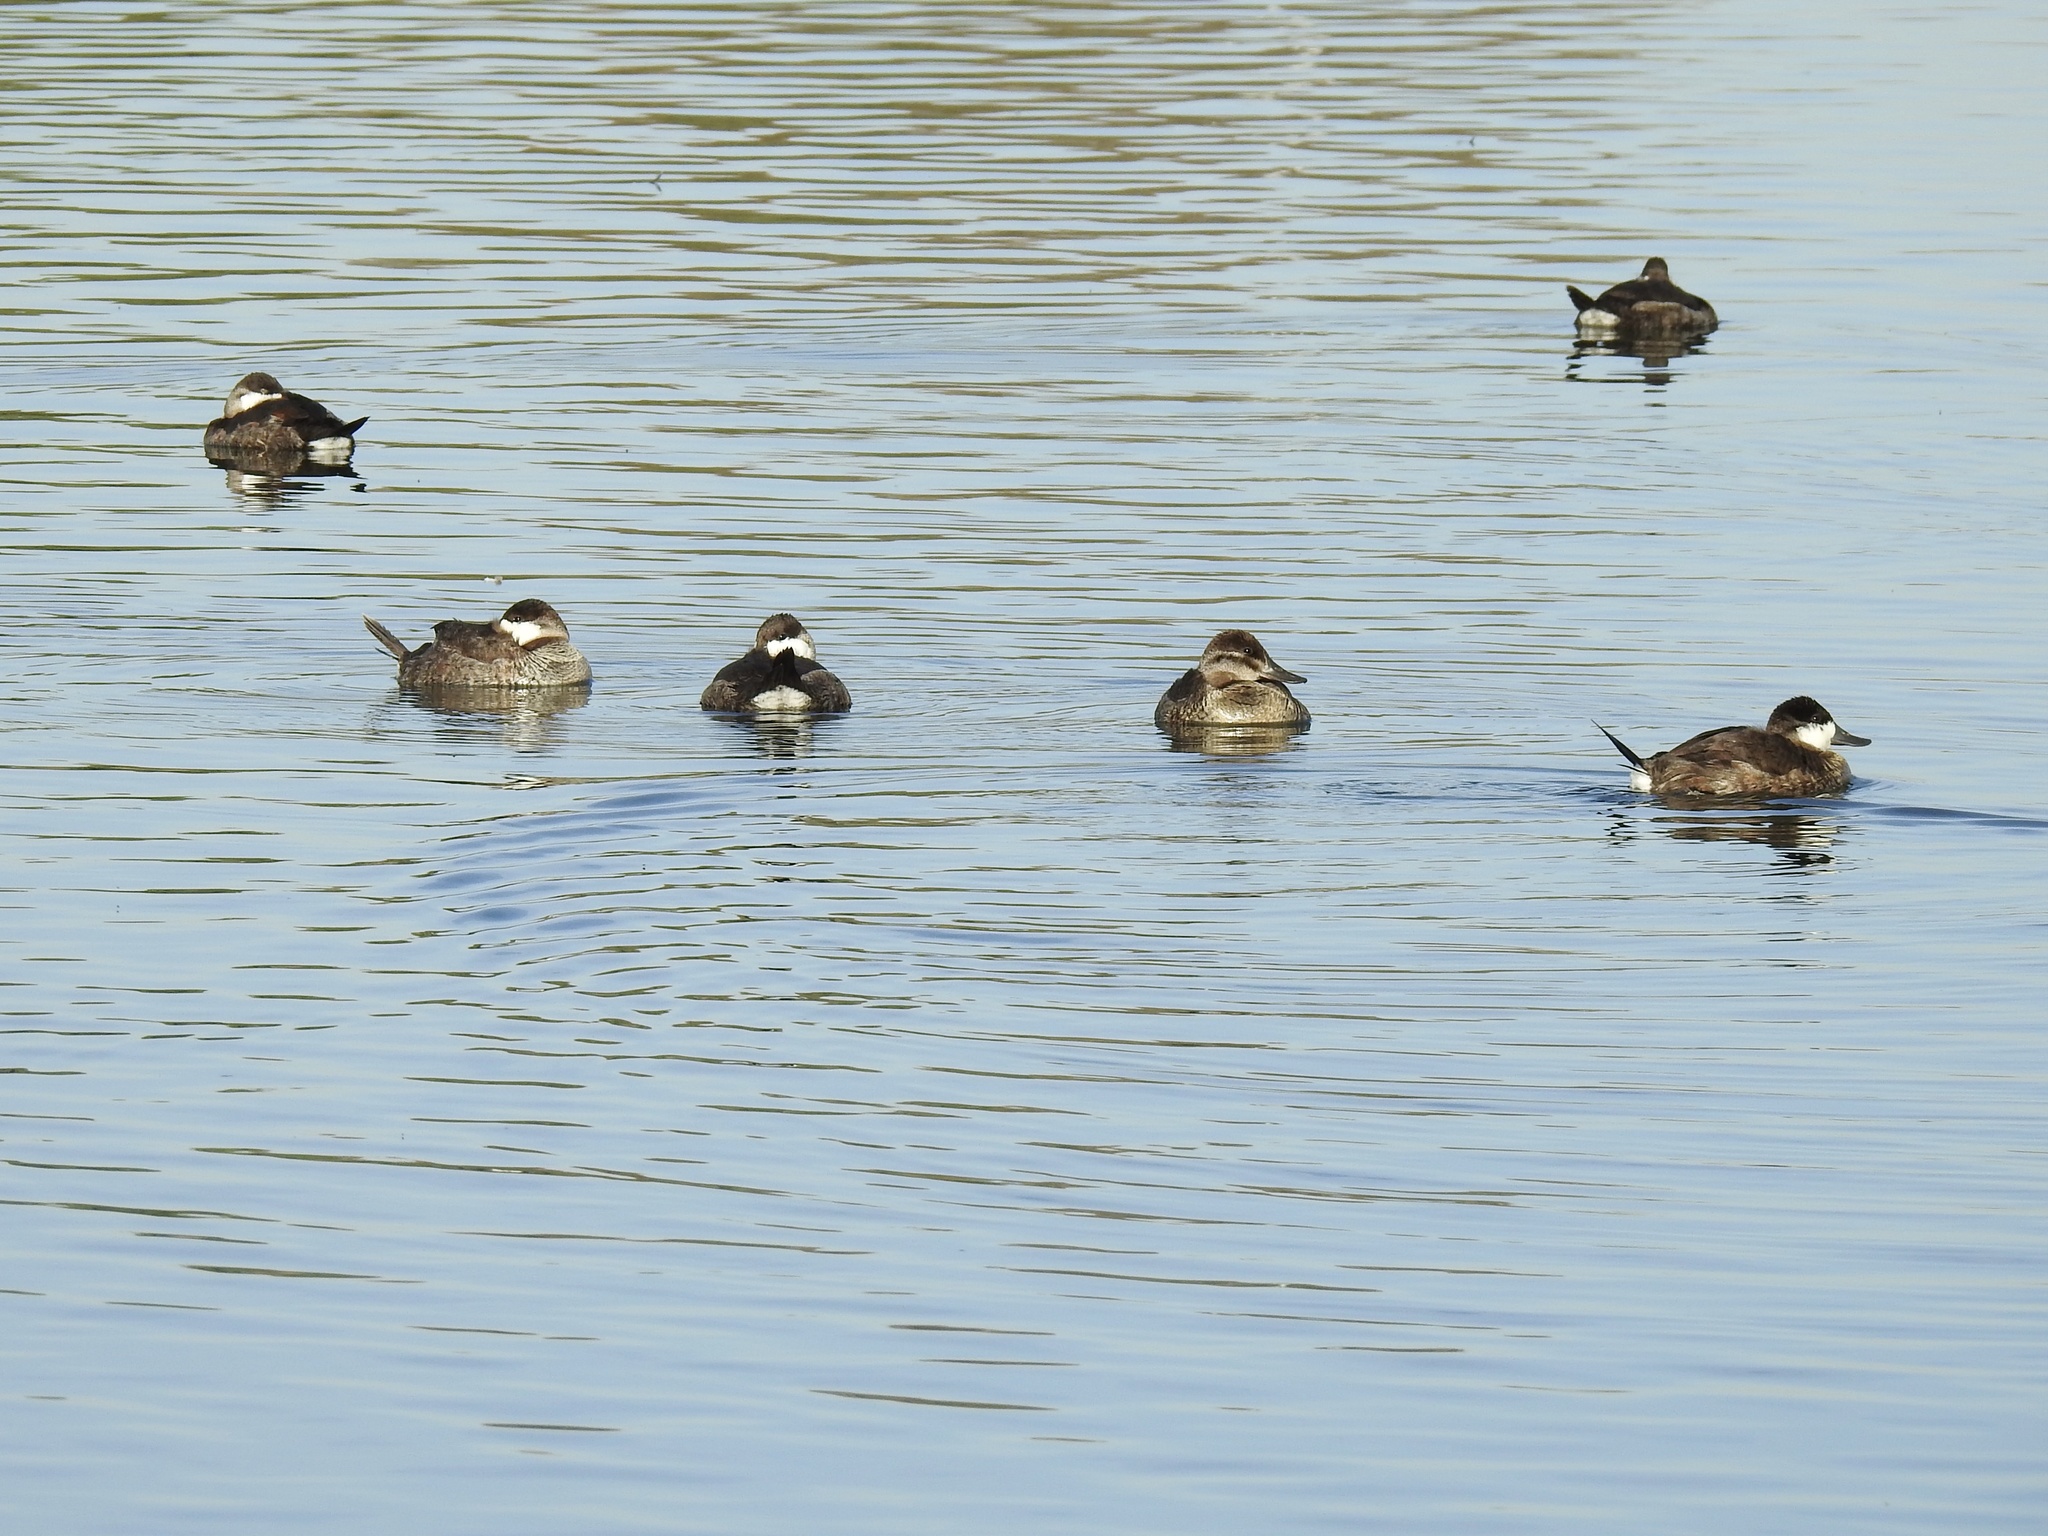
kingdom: Animalia
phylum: Chordata
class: Aves
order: Anseriformes
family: Anatidae
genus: Oxyura
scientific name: Oxyura jamaicensis
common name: Ruddy duck
